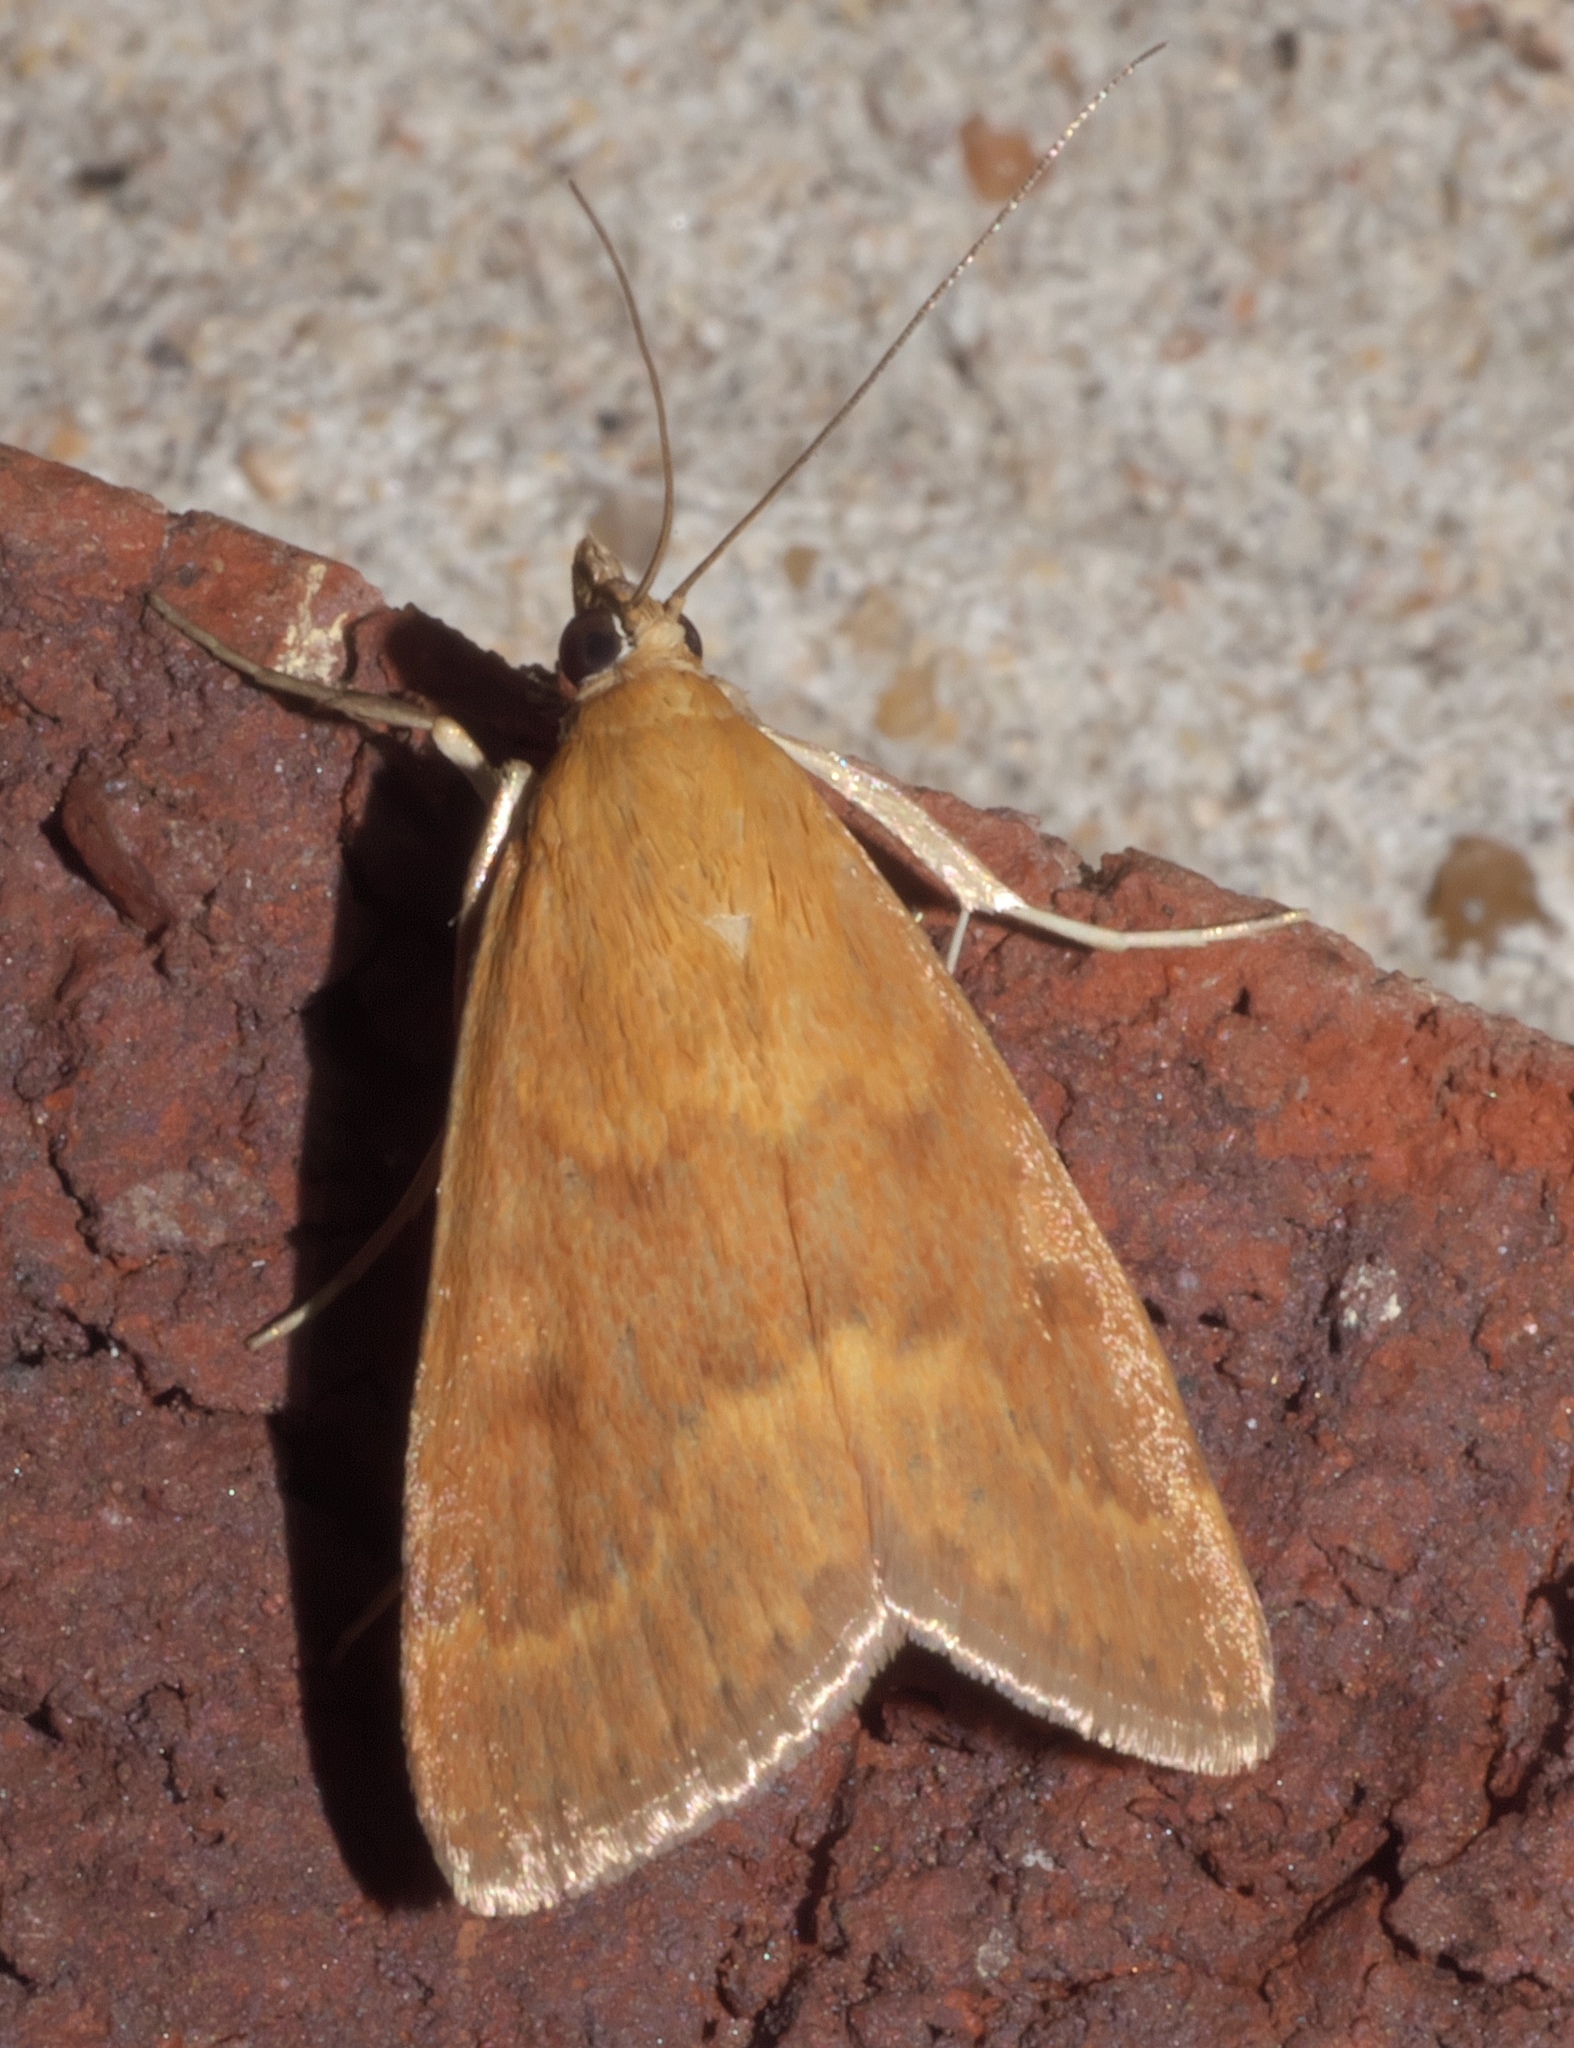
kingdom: Animalia
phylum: Arthropoda
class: Insecta
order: Lepidoptera
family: Crambidae
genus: Achyra
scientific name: Achyra rantalis
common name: Garden webworm
